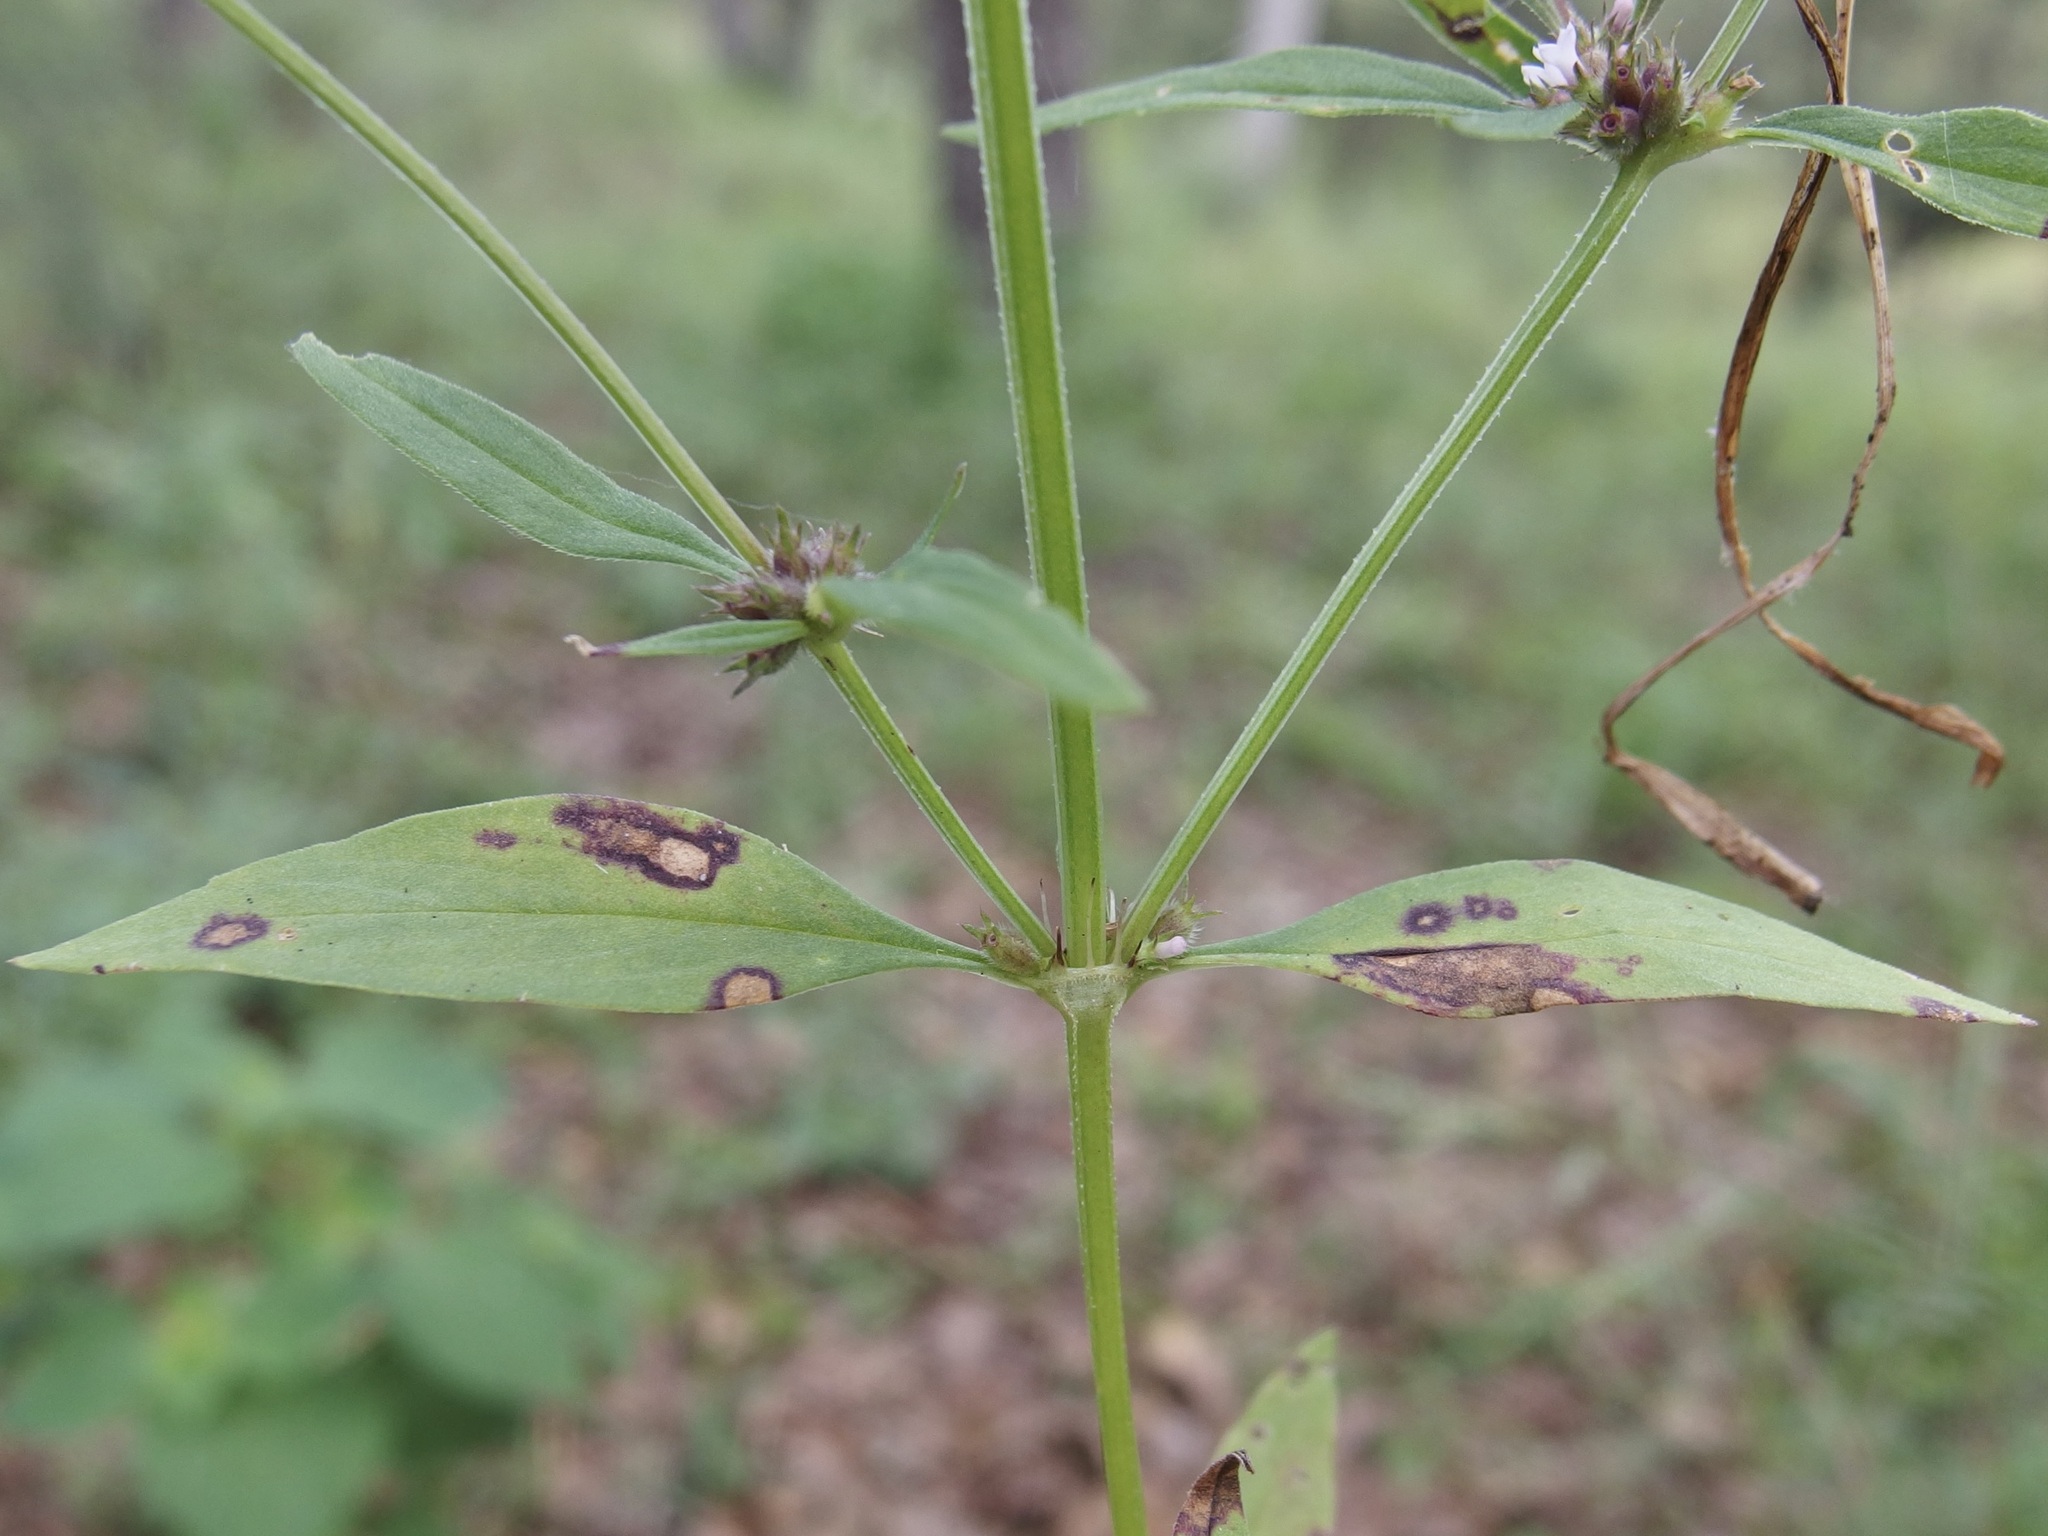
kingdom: Plantae
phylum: Tracheophyta
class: Magnoliopsida
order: Gentianales
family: Rubiaceae
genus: Spermacoce
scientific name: Spermacoce confusa
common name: Iron-grass
